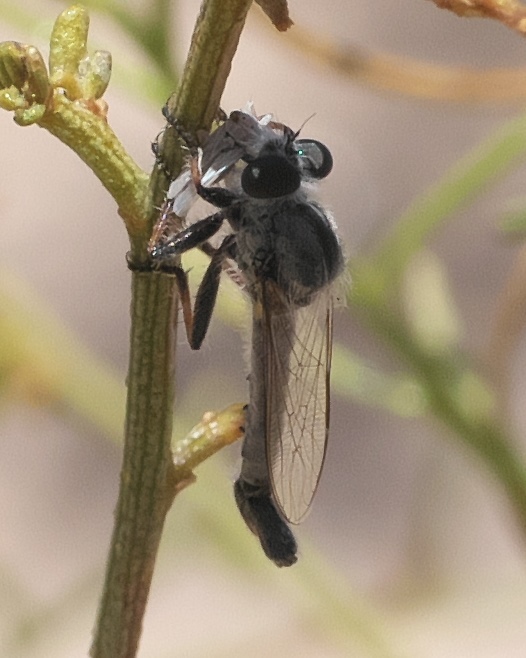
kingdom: Animalia
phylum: Arthropoda
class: Insecta
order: Diptera
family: Asilidae
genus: Efferia
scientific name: Efferia producta
